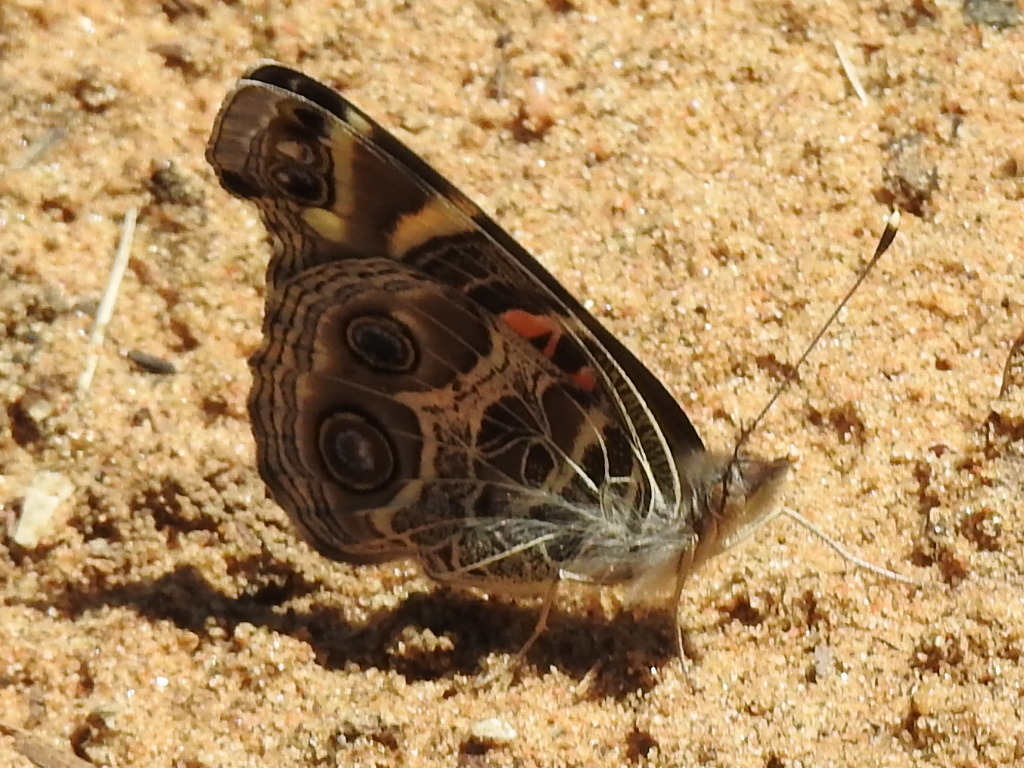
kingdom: Animalia
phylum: Arthropoda
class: Insecta
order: Lepidoptera
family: Nymphalidae
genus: Vanessa
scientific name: Vanessa virginiensis
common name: American lady
